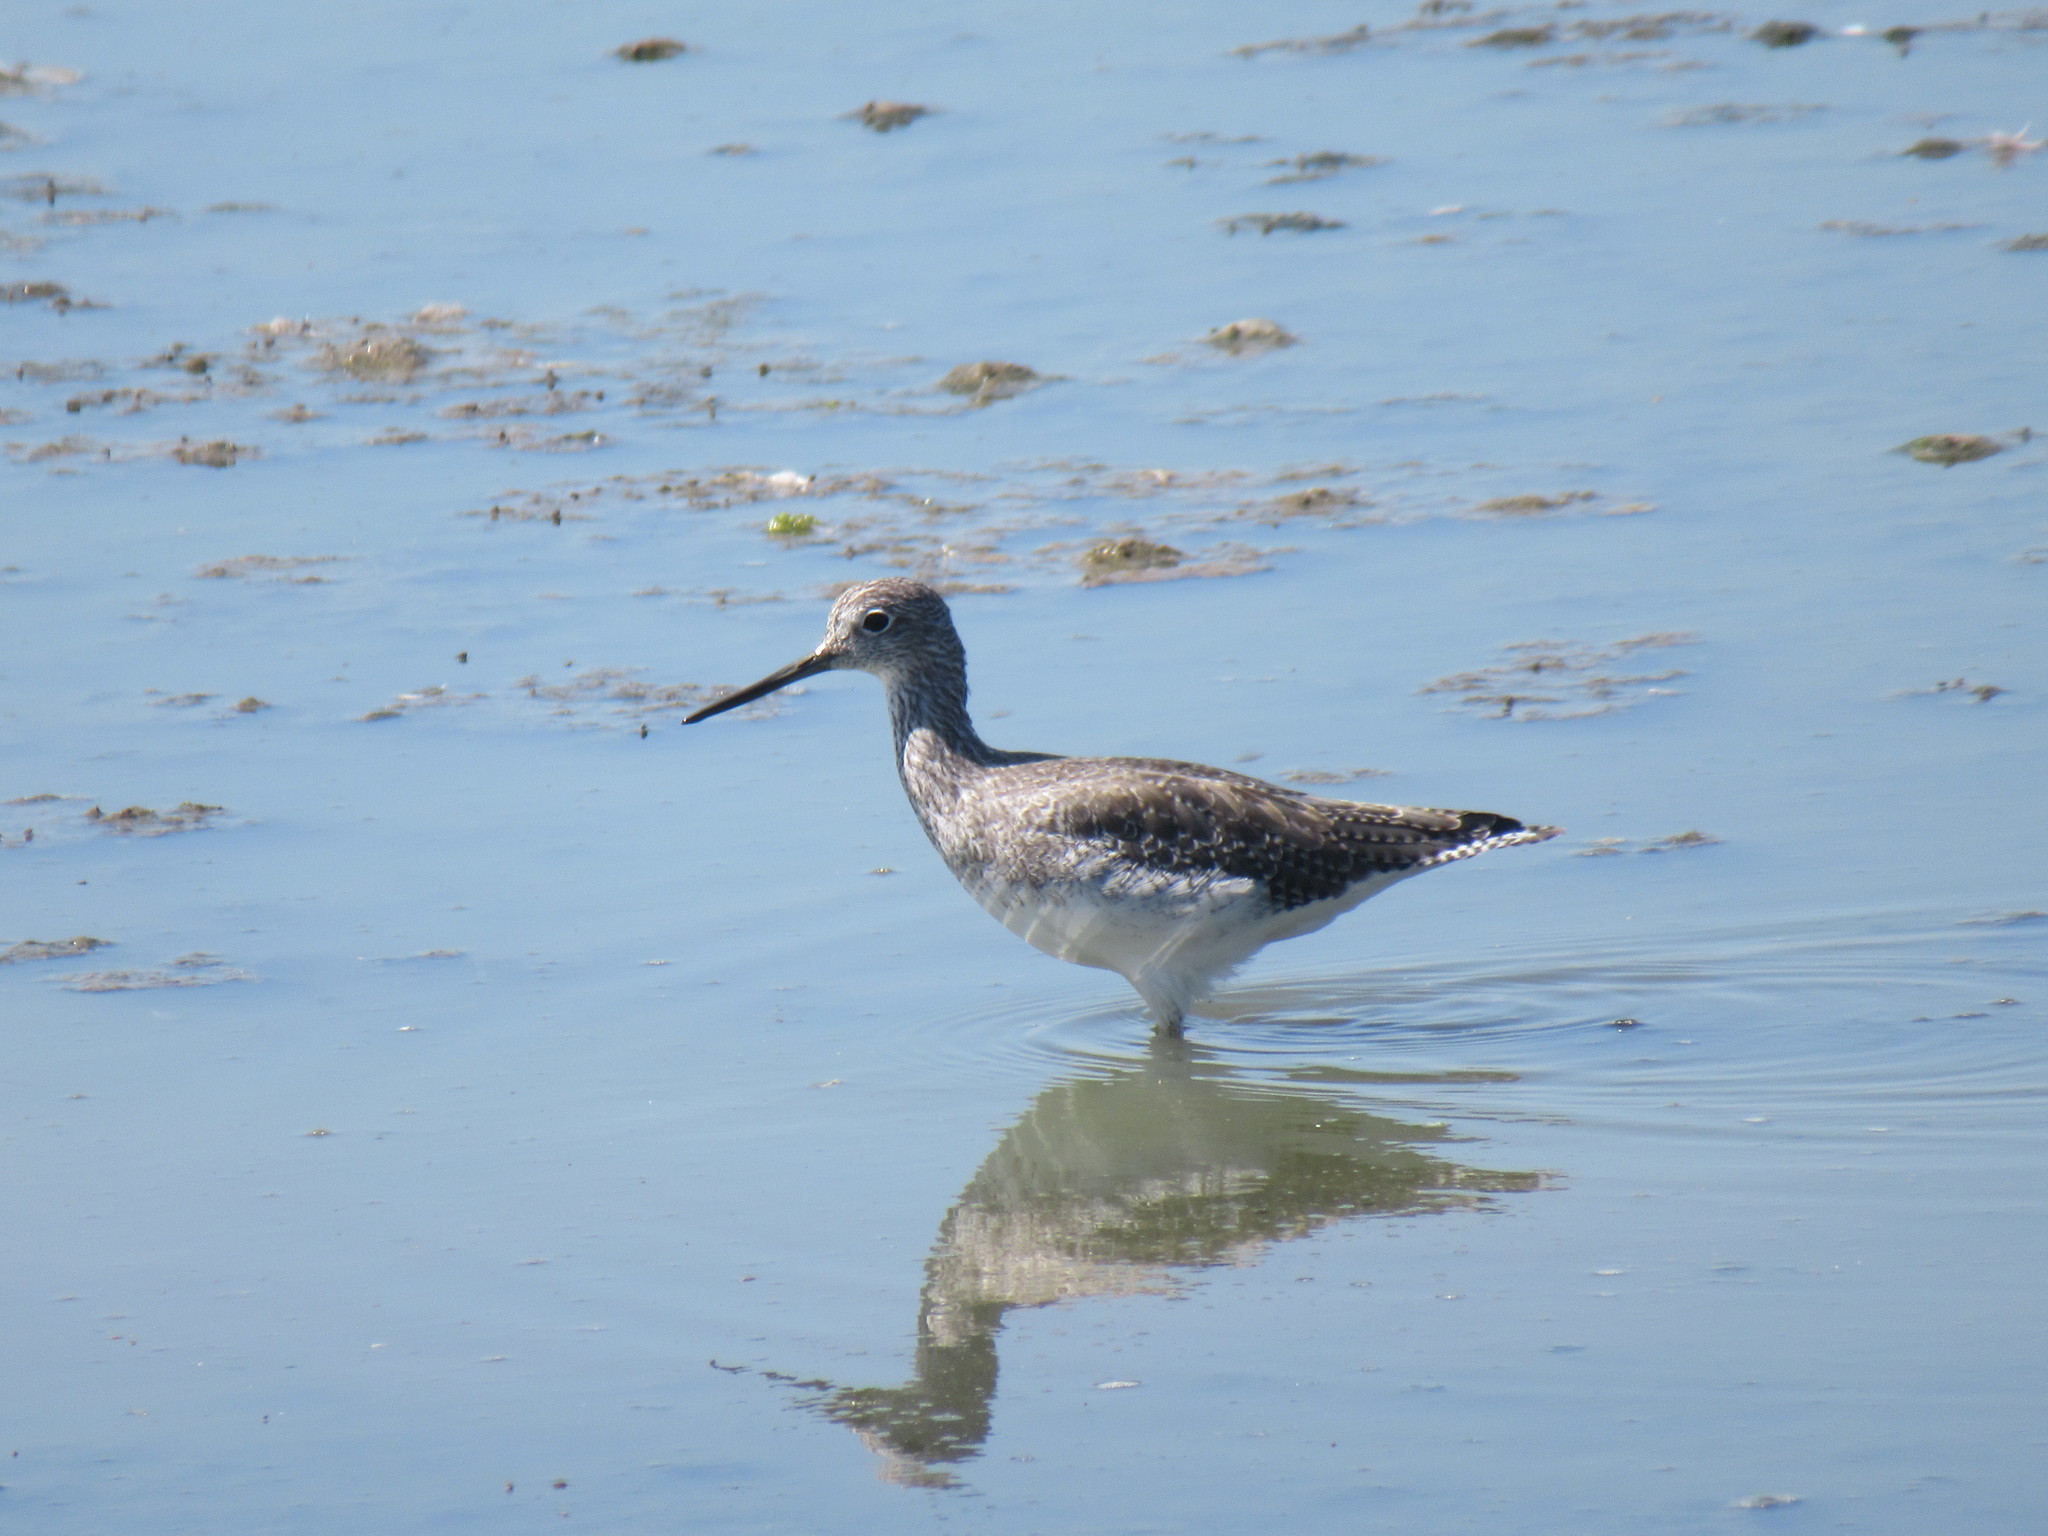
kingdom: Animalia
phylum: Chordata
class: Aves
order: Charadriiformes
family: Scolopacidae
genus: Tringa
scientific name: Tringa melanoleuca
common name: Greater yellowlegs
